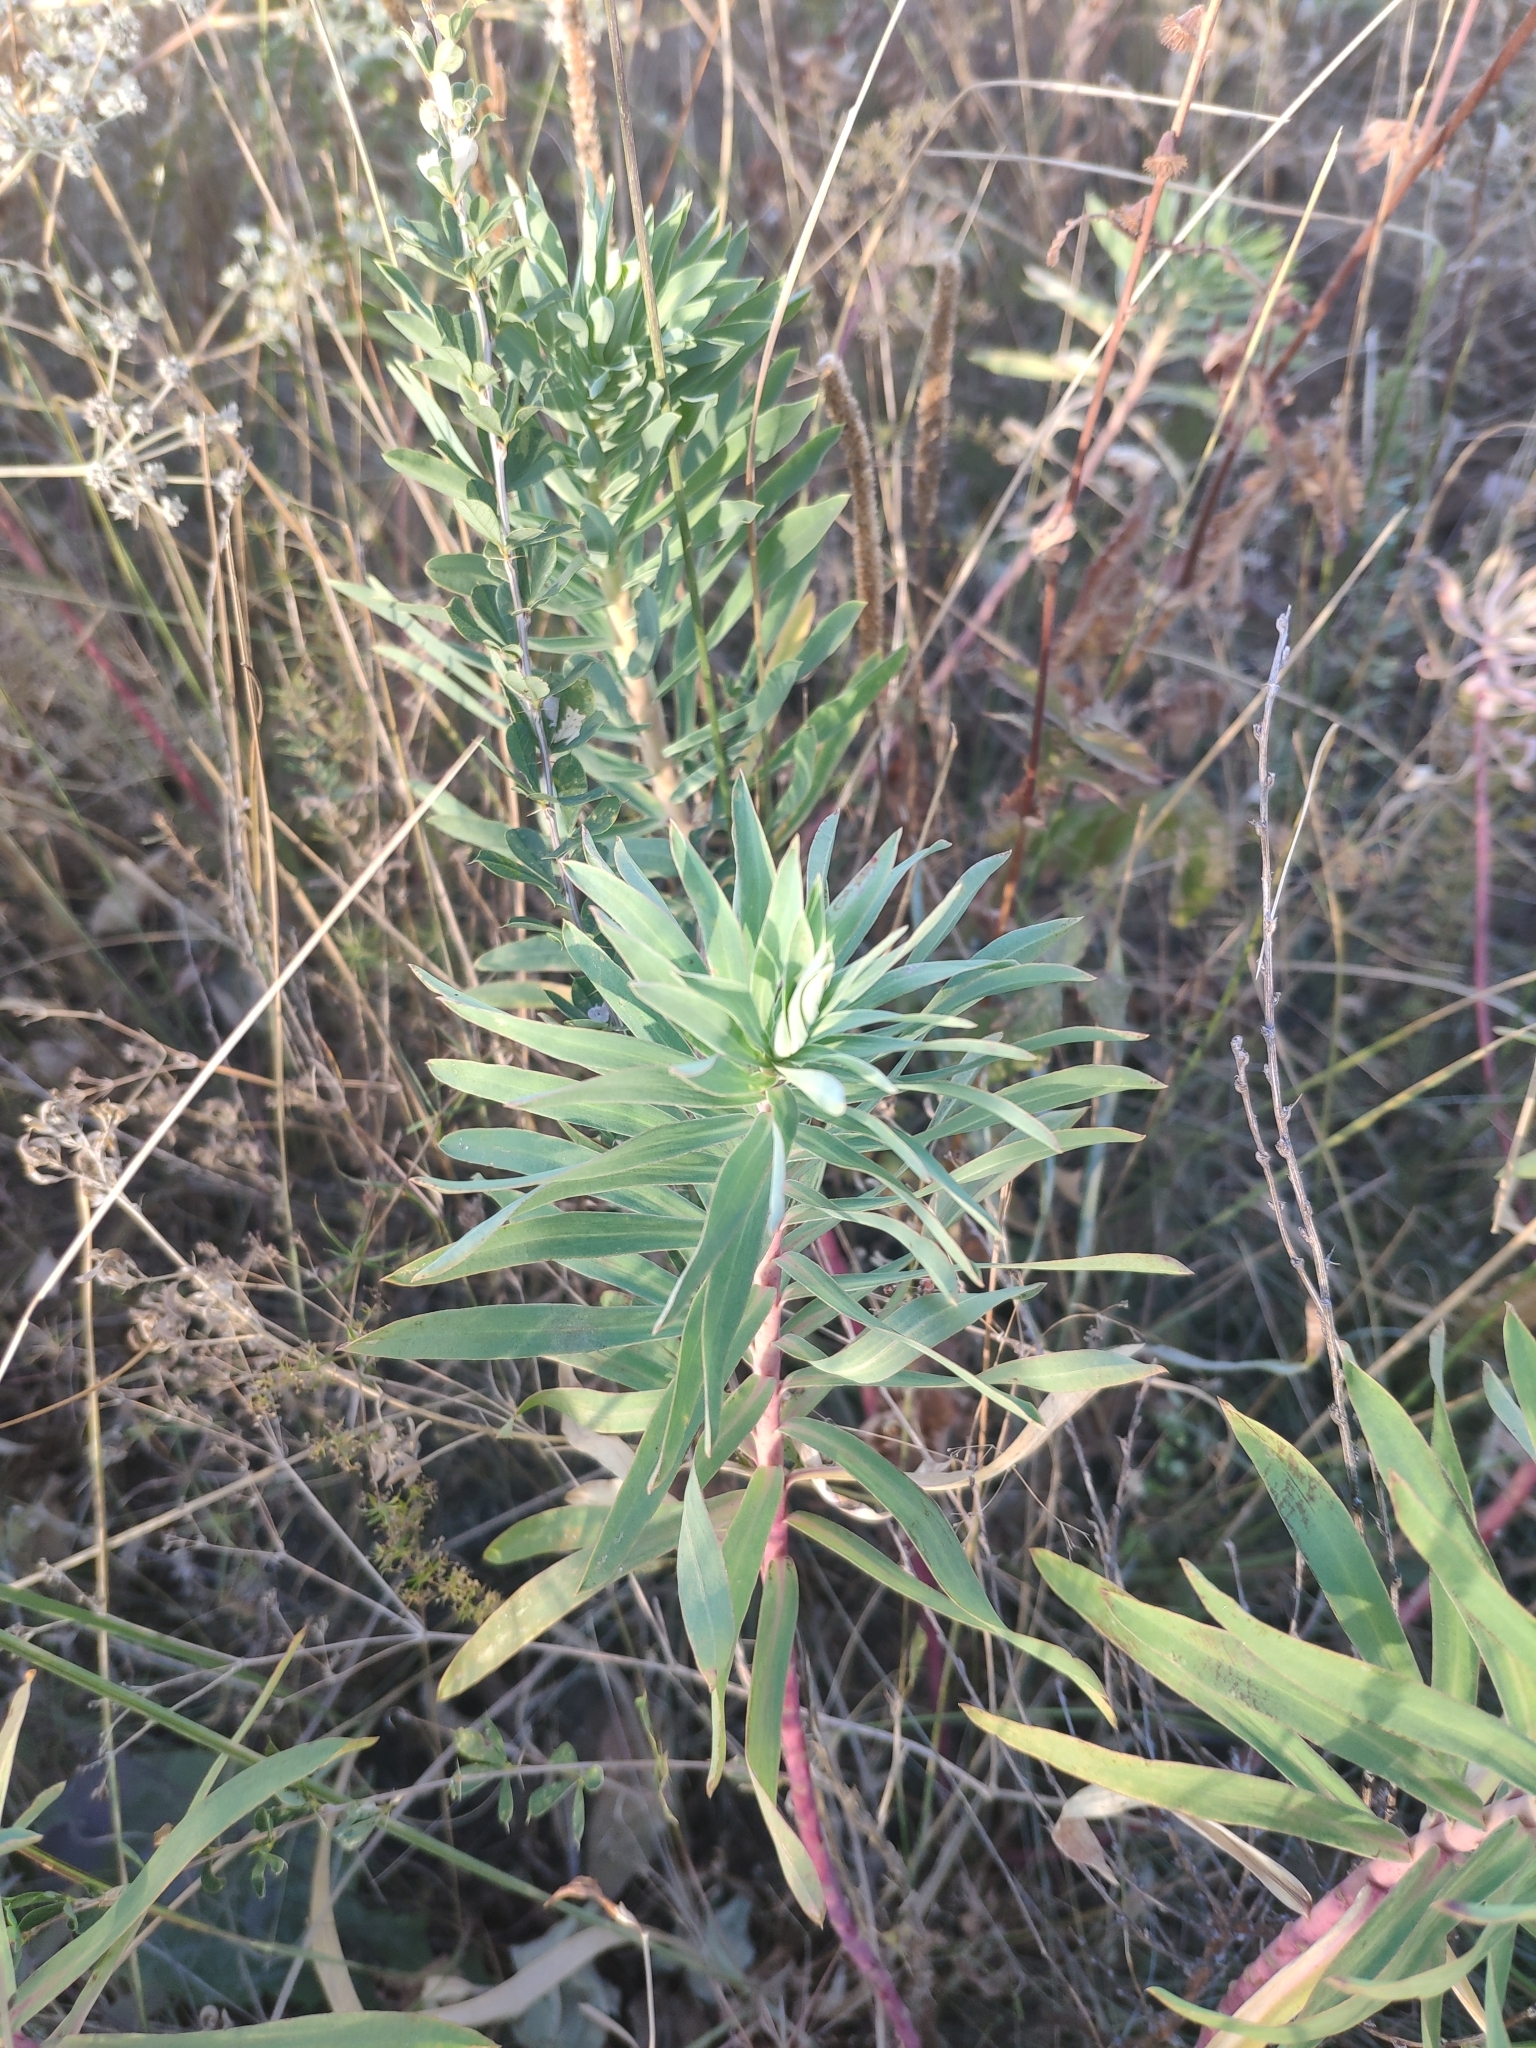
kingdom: Plantae
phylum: Tracheophyta
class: Magnoliopsida
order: Malpighiales
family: Euphorbiaceae
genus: Euphorbia
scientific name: Euphorbia stepposa
